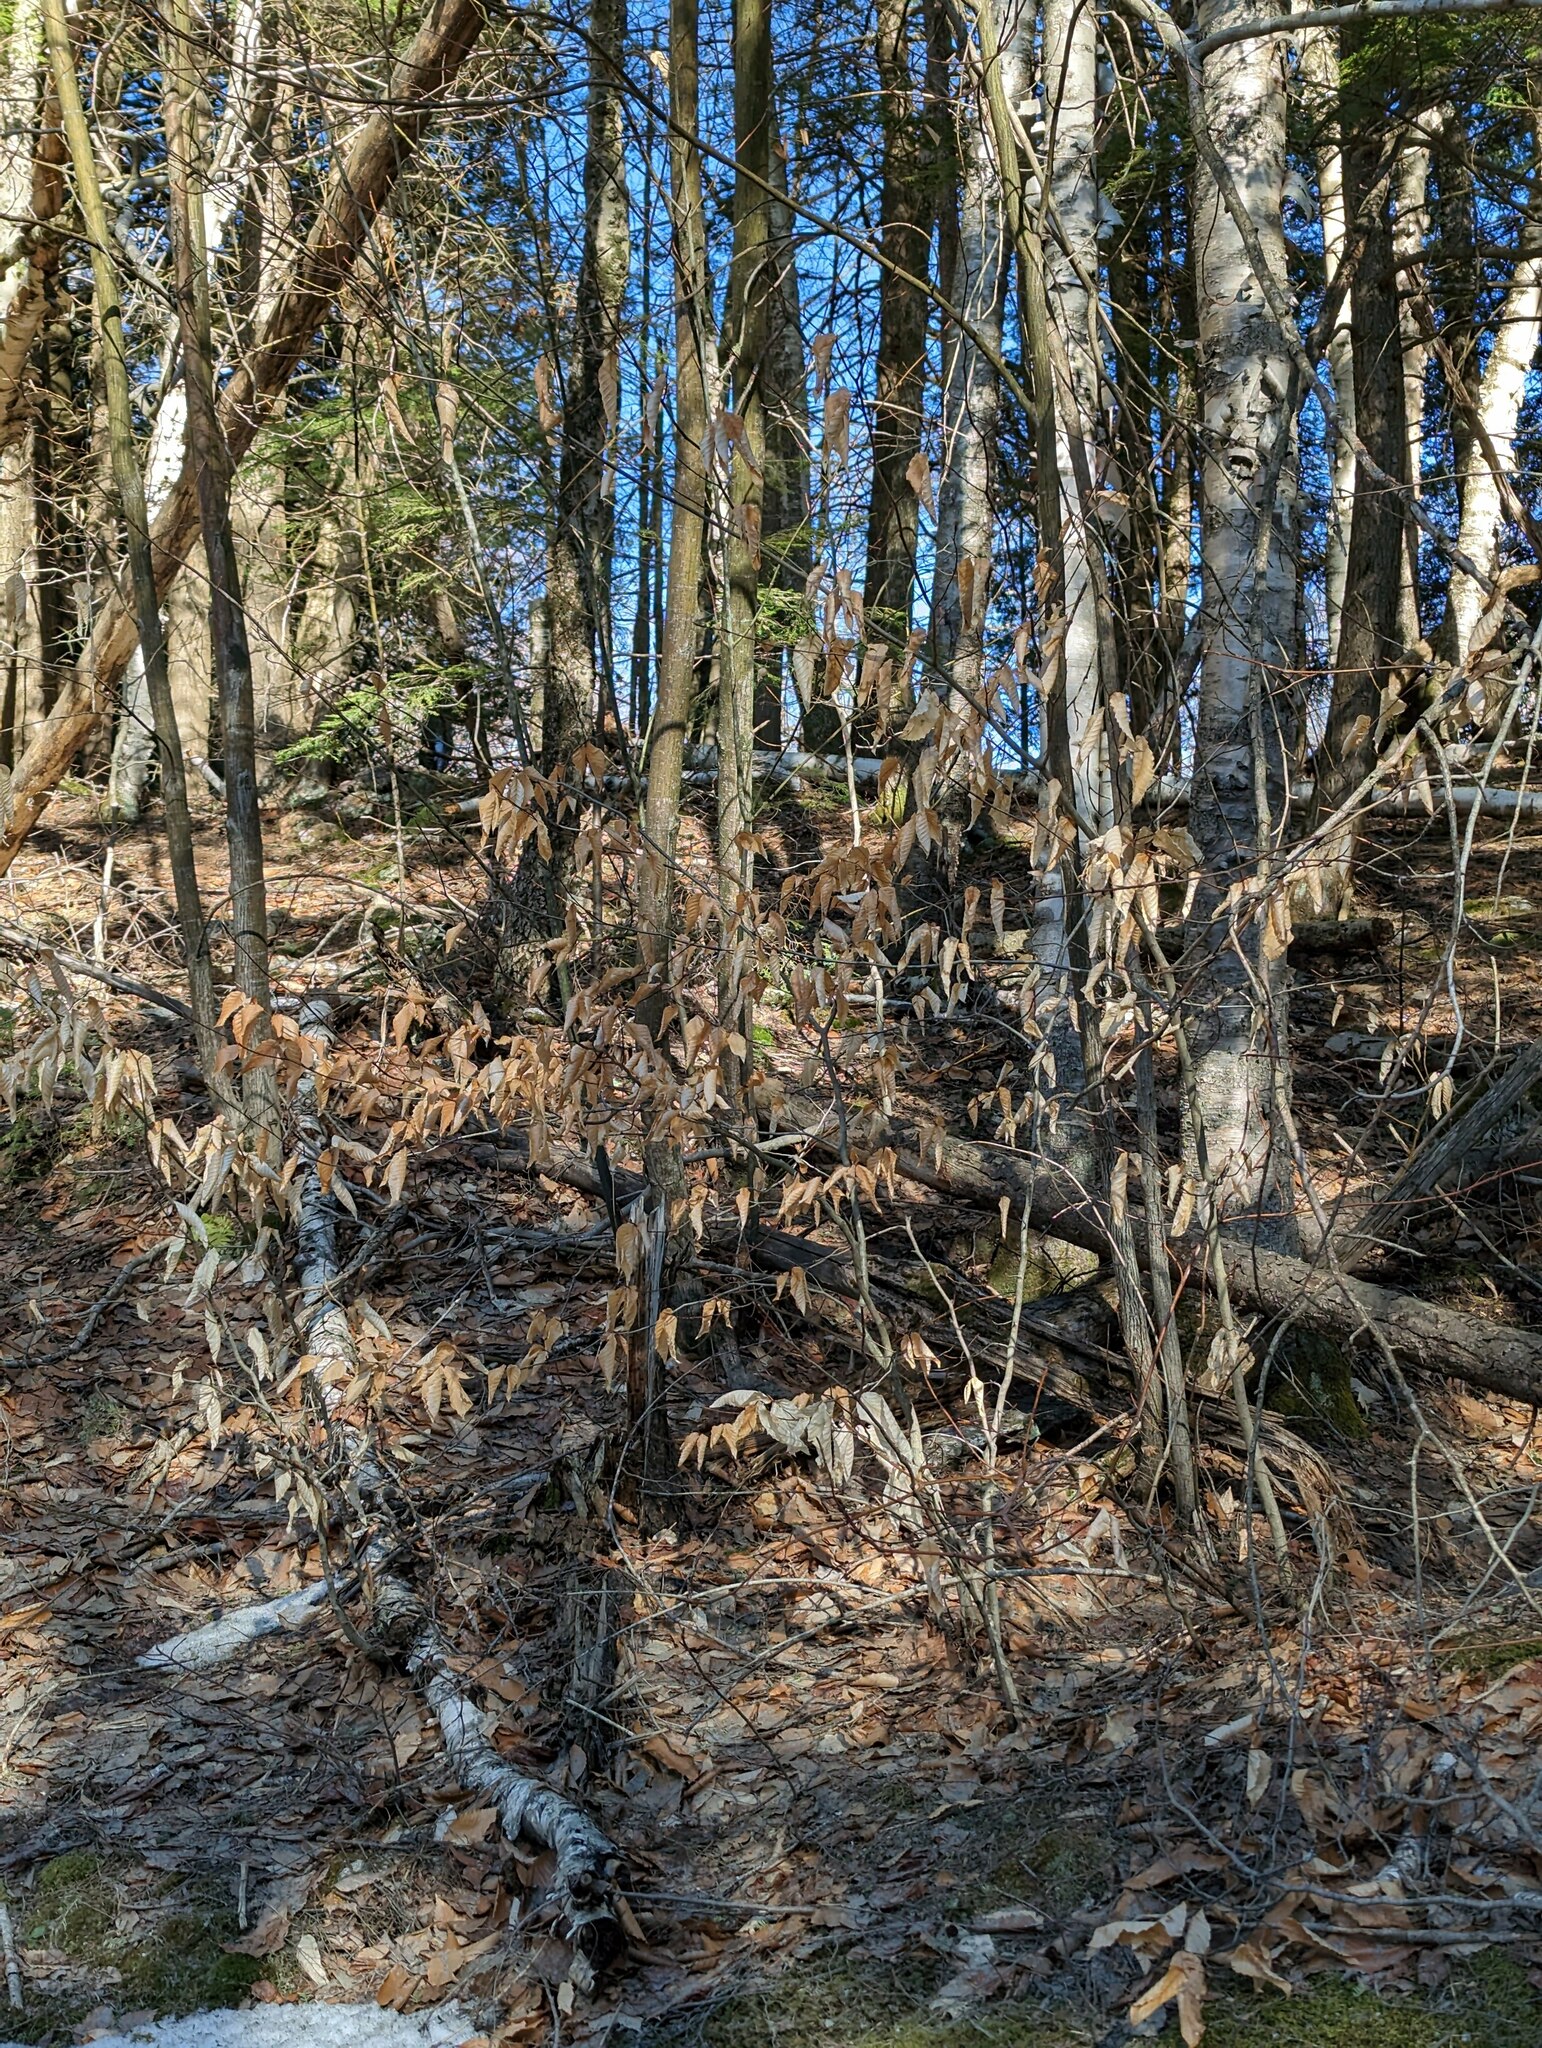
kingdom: Plantae
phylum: Tracheophyta
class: Magnoliopsida
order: Fagales
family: Fagaceae
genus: Fagus
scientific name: Fagus grandifolia
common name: American beech
